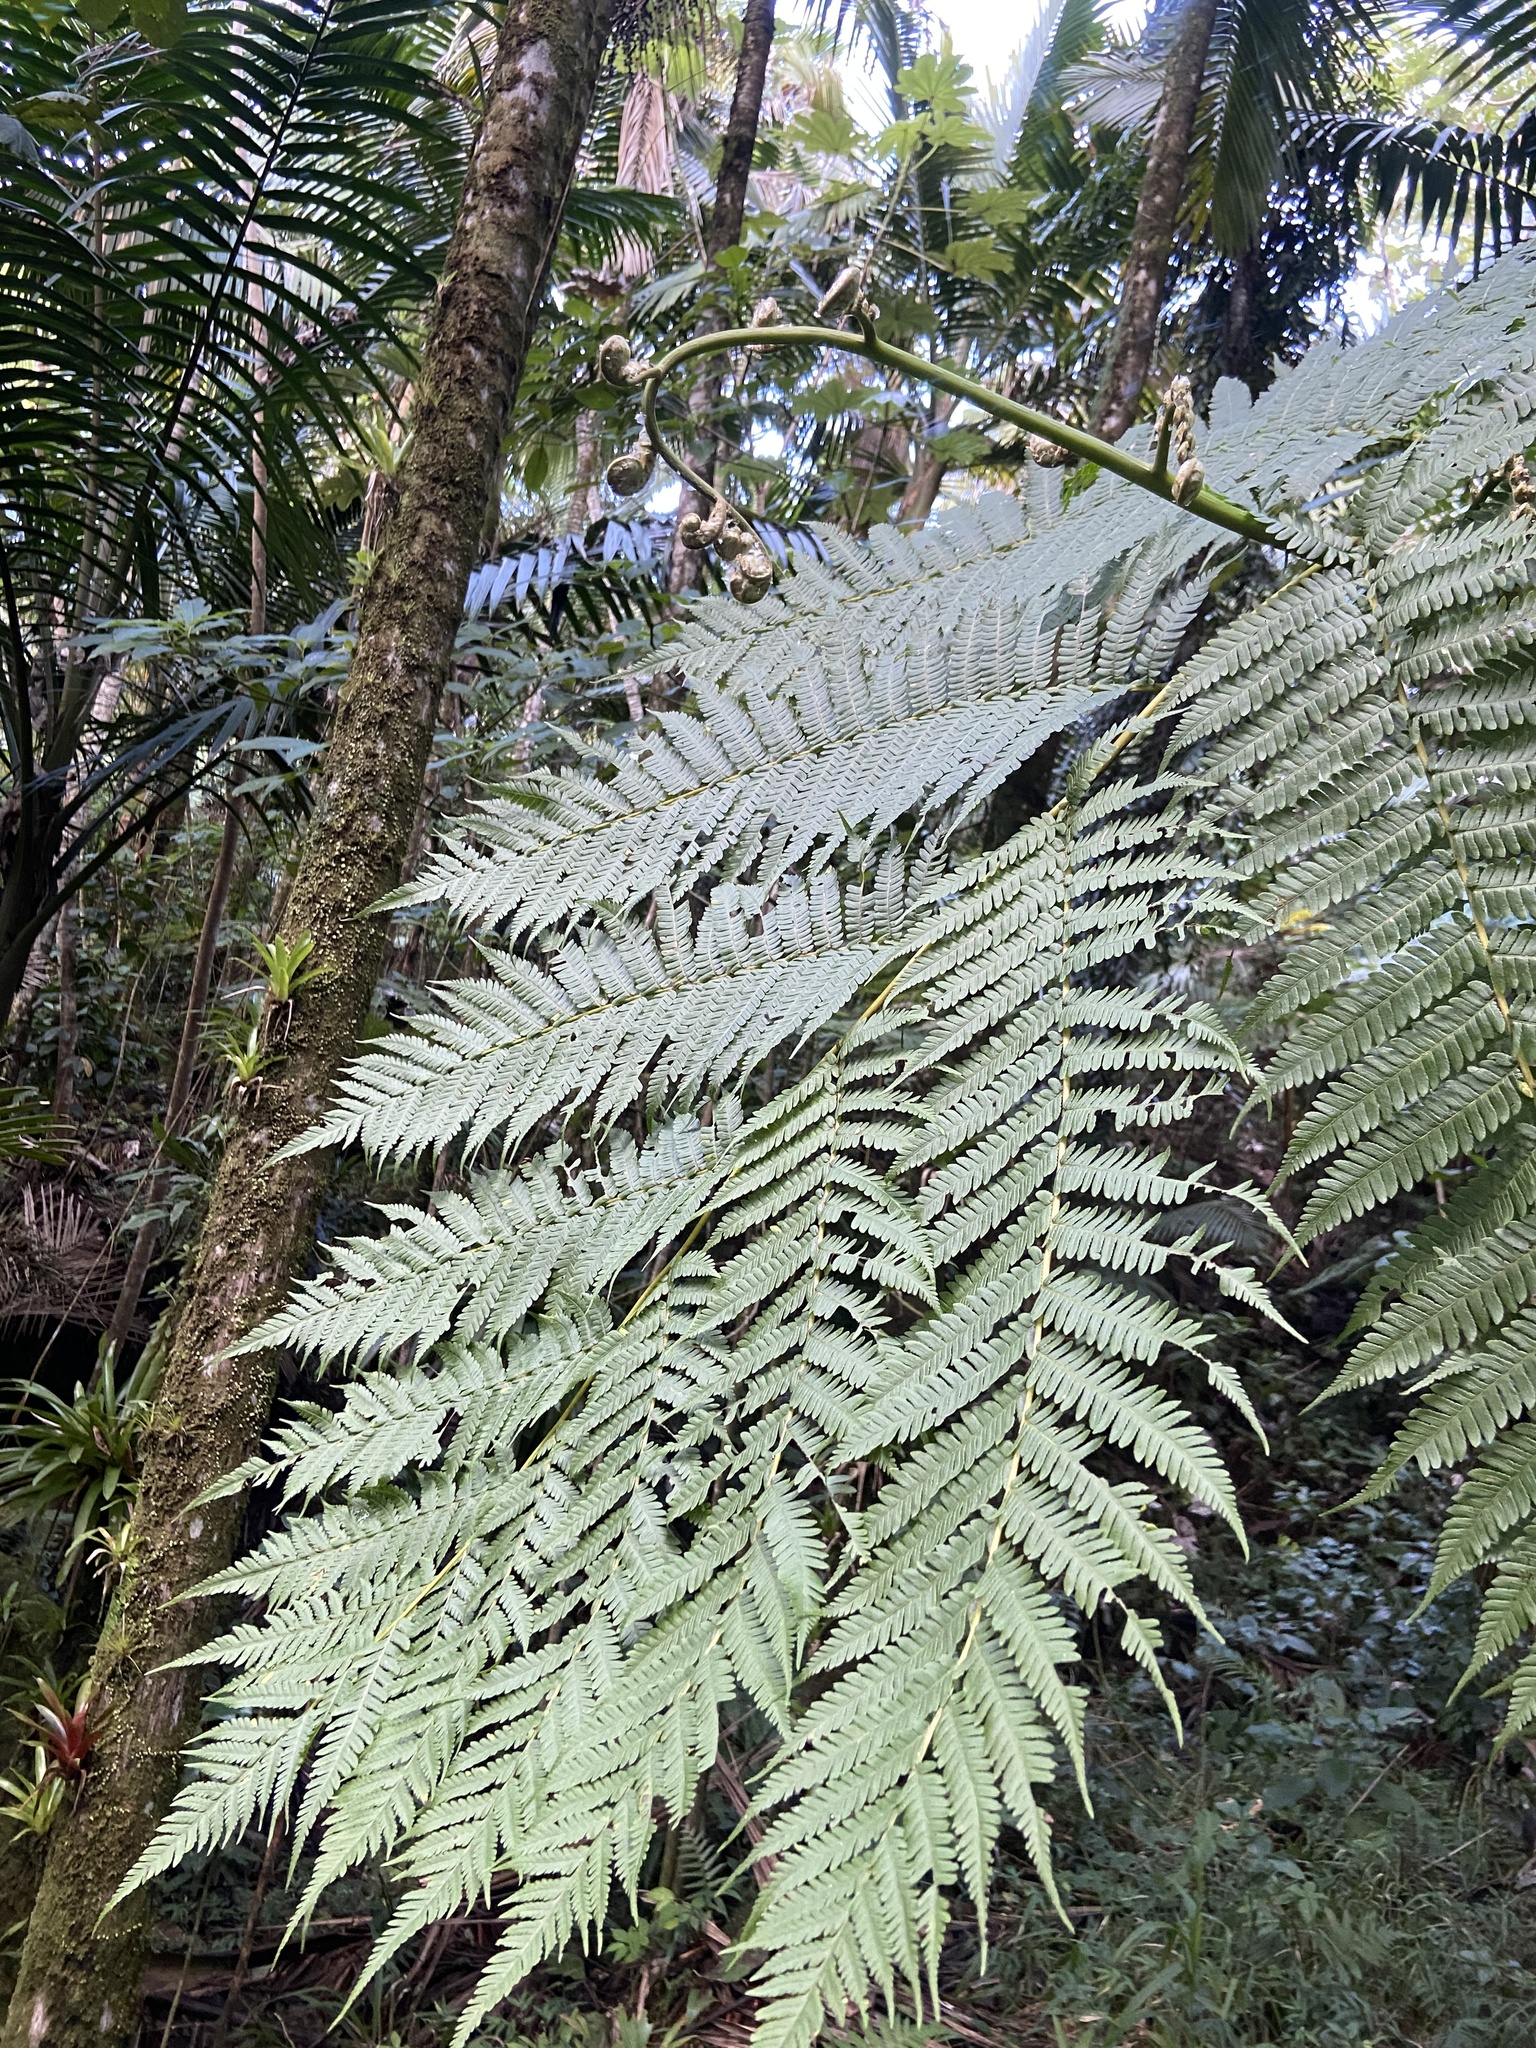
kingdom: Plantae
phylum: Tracheophyta
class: Polypodiopsida
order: Cyatheales
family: Cyatheaceae
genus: Cyathea
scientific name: Cyathea arborea
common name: West indian treefern
